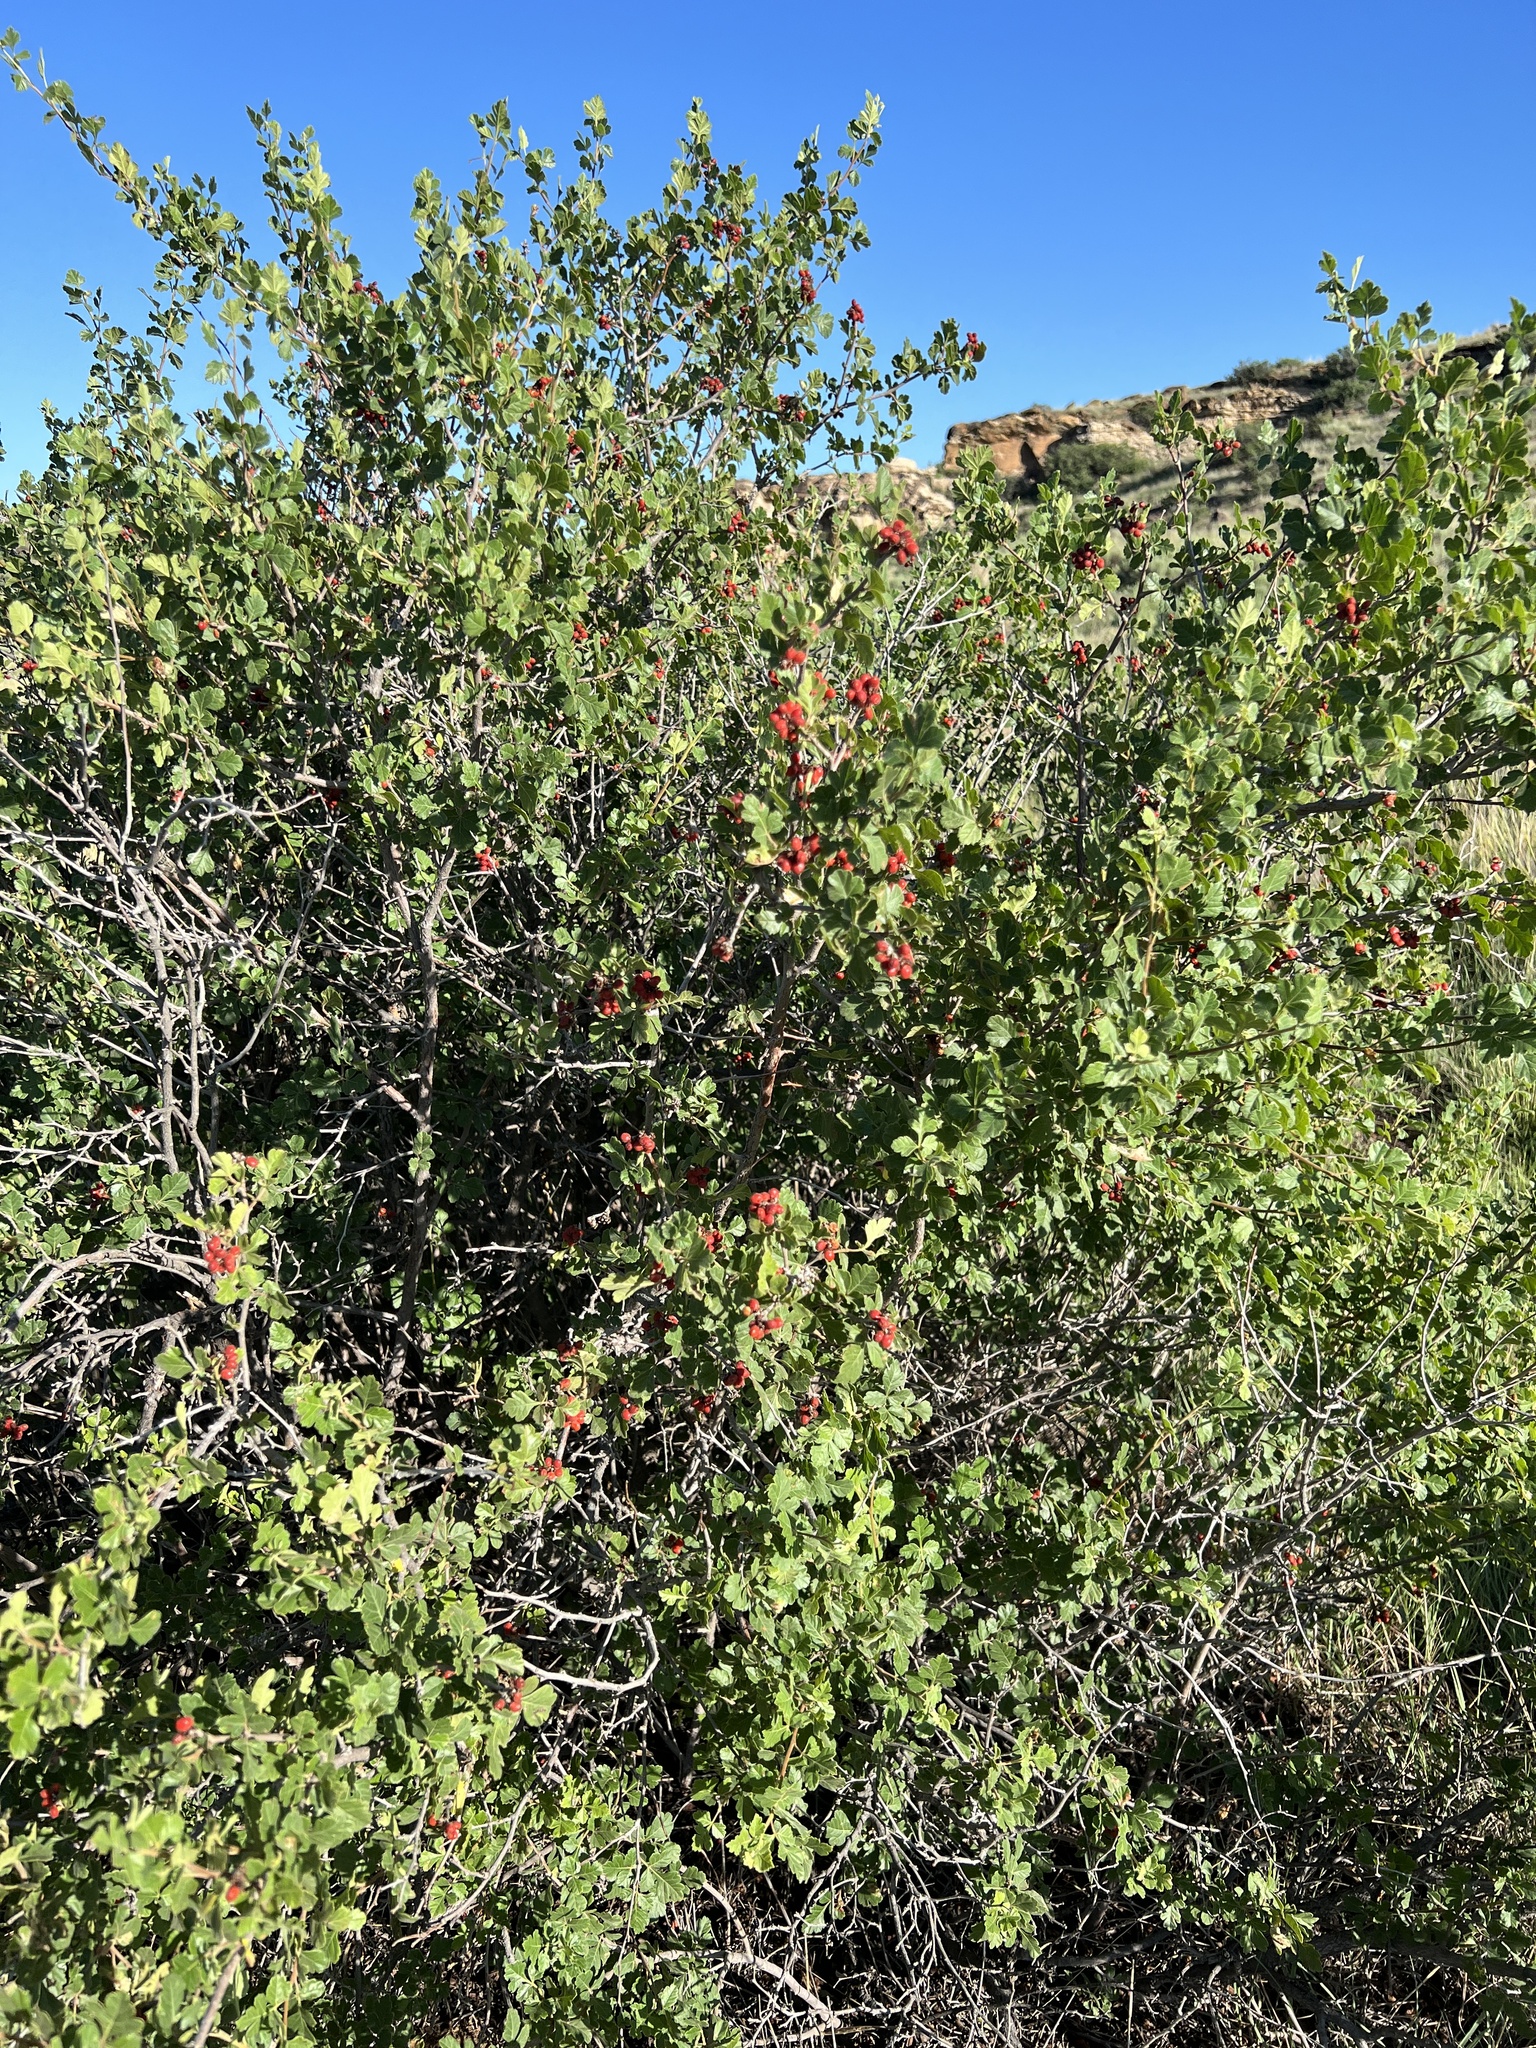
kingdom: Plantae
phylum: Tracheophyta
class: Magnoliopsida
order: Sapindales
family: Anacardiaceae
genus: Rhus
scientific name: Rhus aromatica
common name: Aromatic sumac
